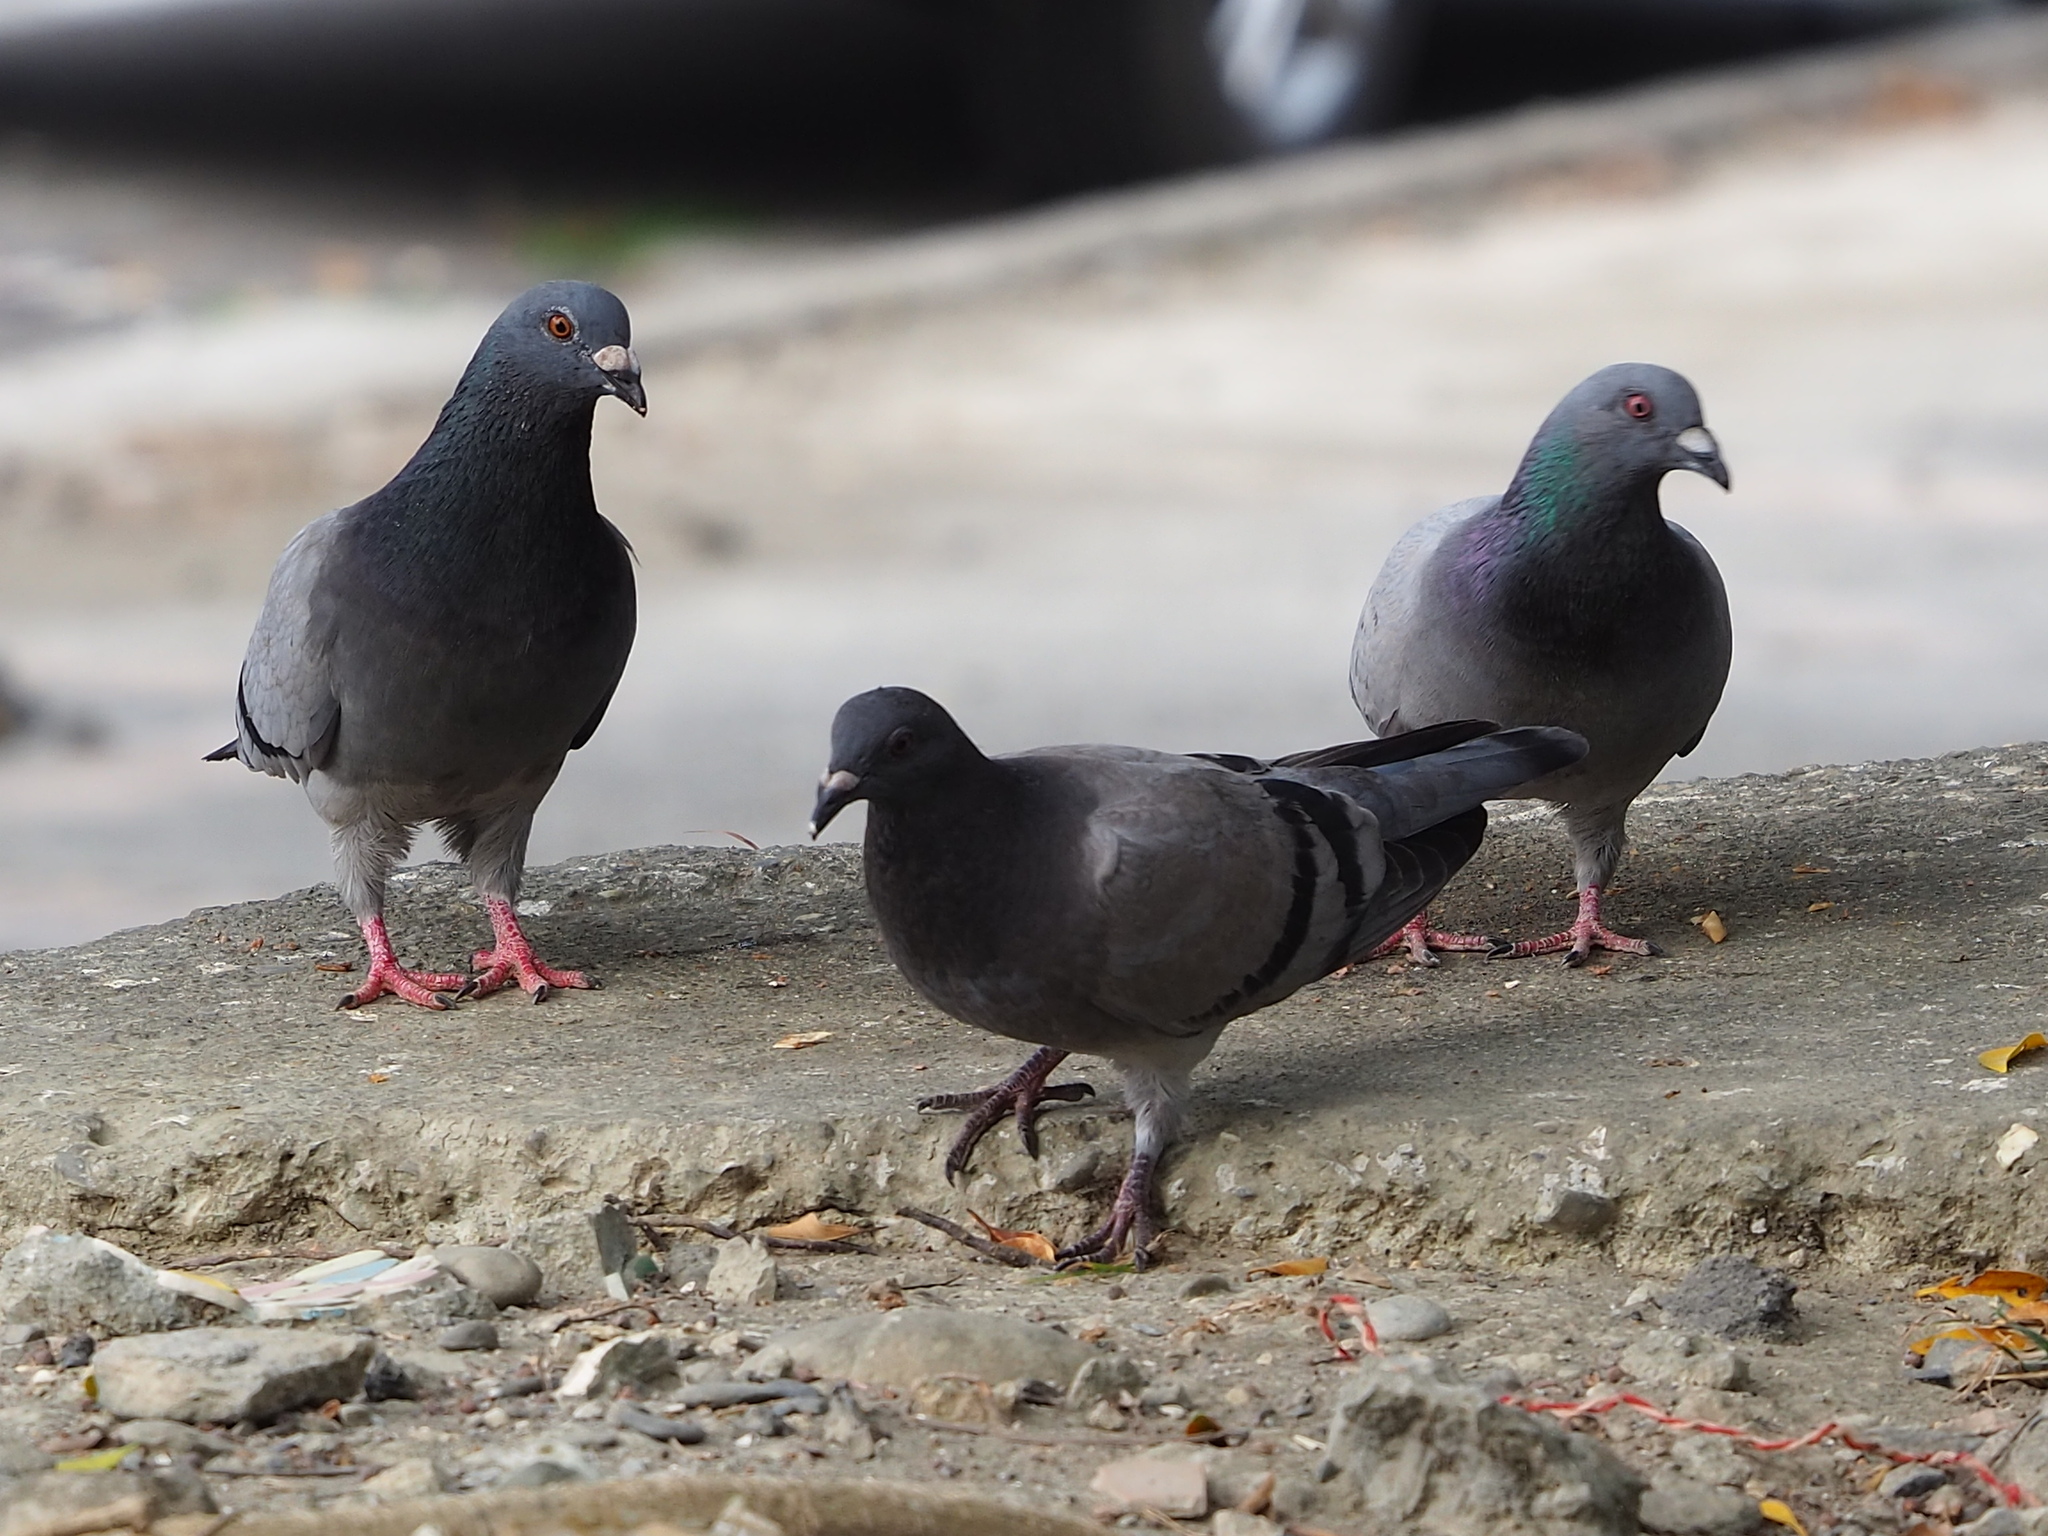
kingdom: Animalia
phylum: Chordata
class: Aves
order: Columbiformes
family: Columbidae
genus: Columba
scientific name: Columba livia
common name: Rock pigeon
